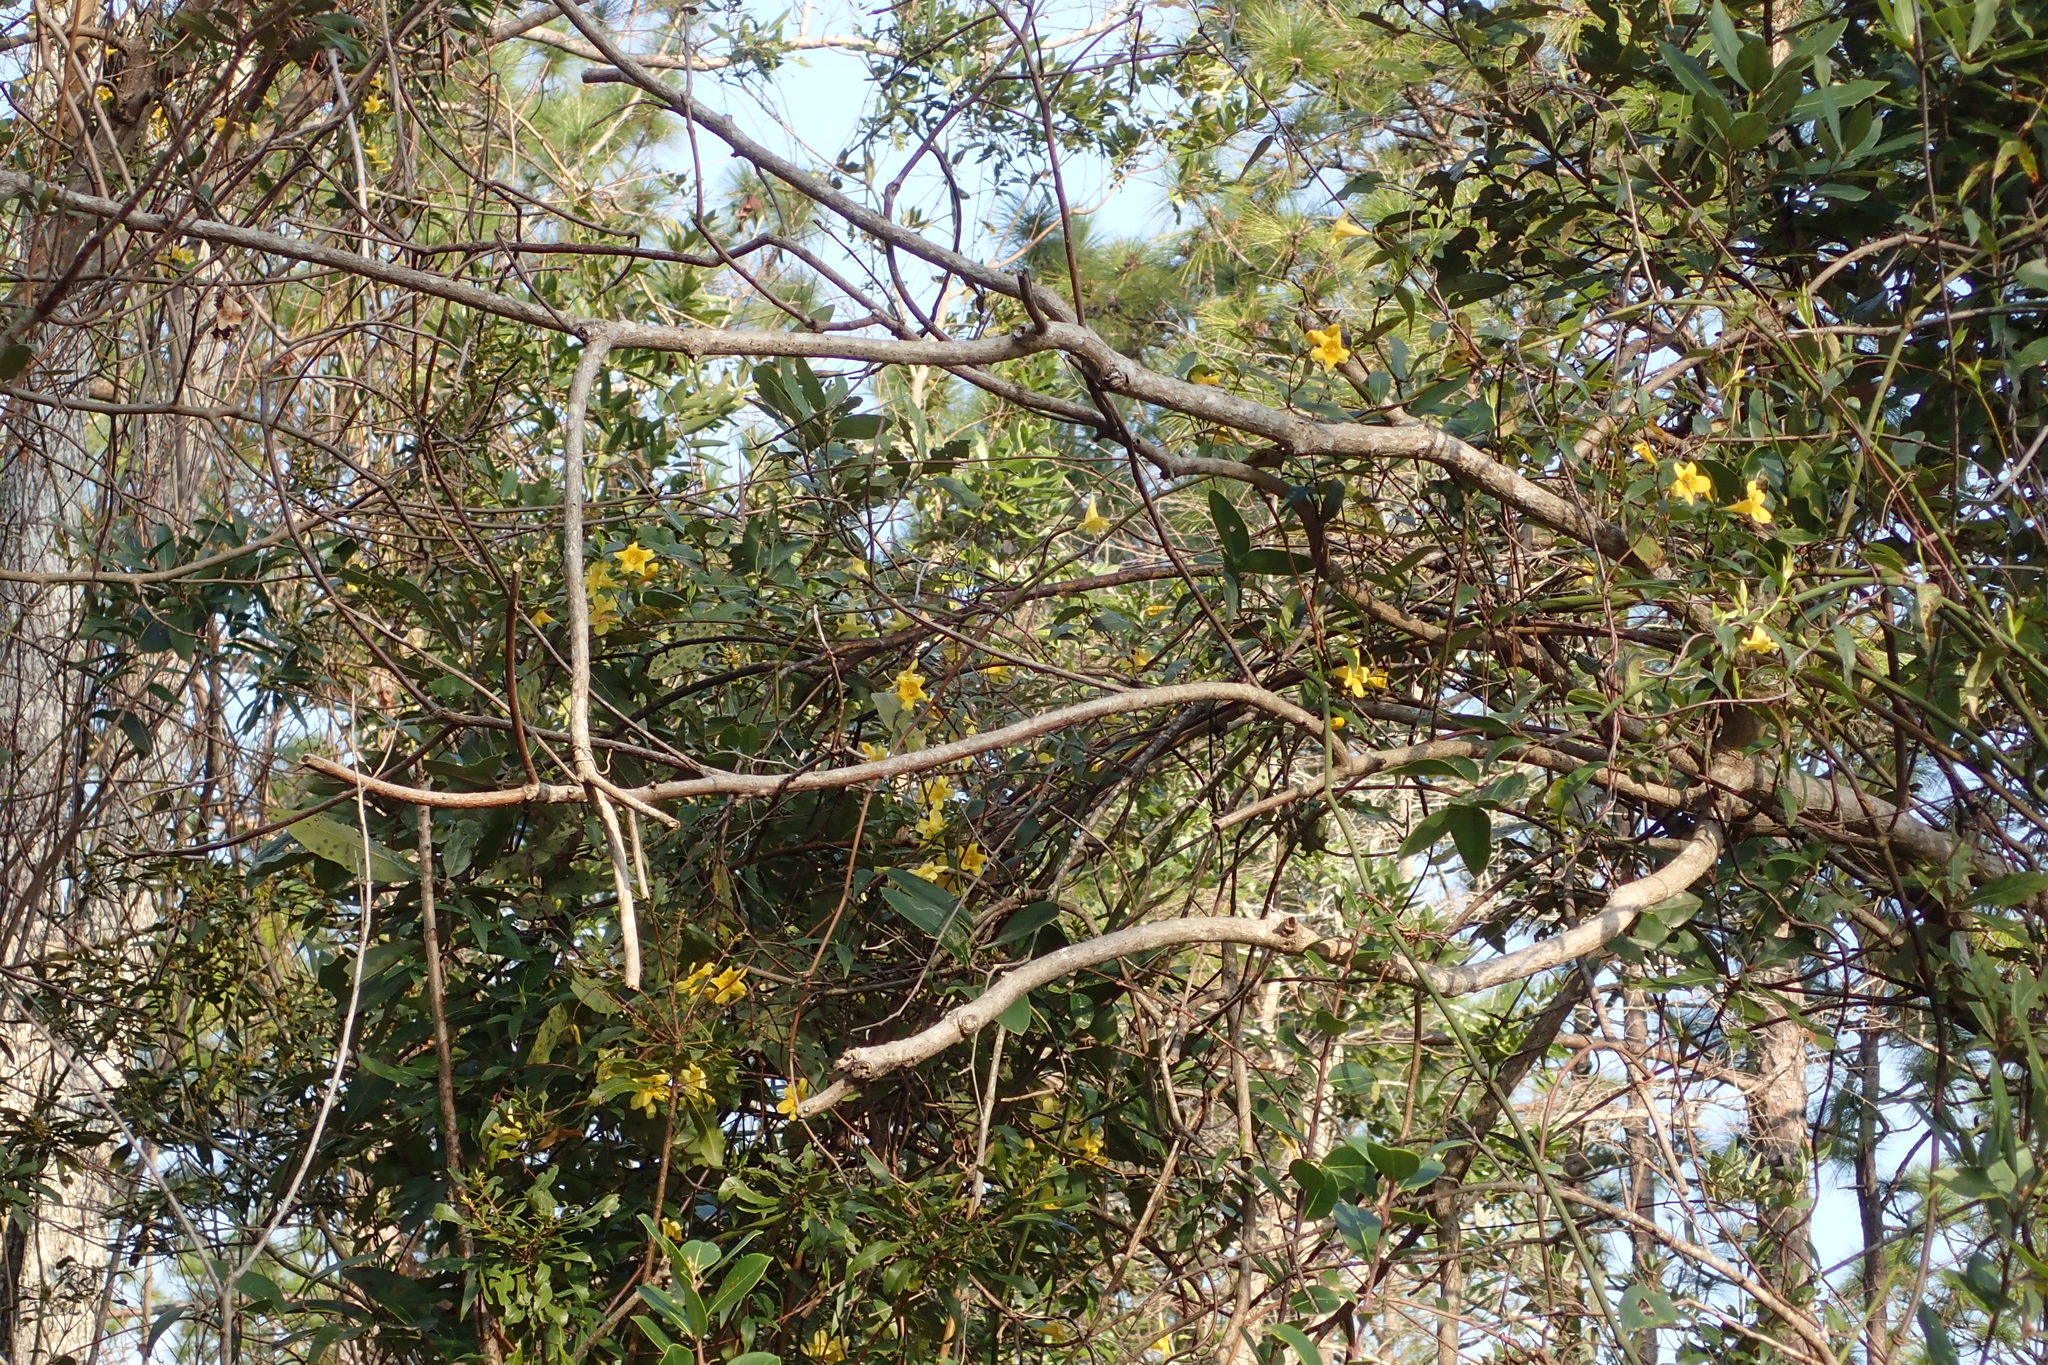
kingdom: Plantae
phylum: Tracheophyta
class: Magnoliopsida
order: Gentianales
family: Gelsemiaceae
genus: Gelsemium
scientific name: Gelsemium sempervirens
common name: Carolina-jasmine
